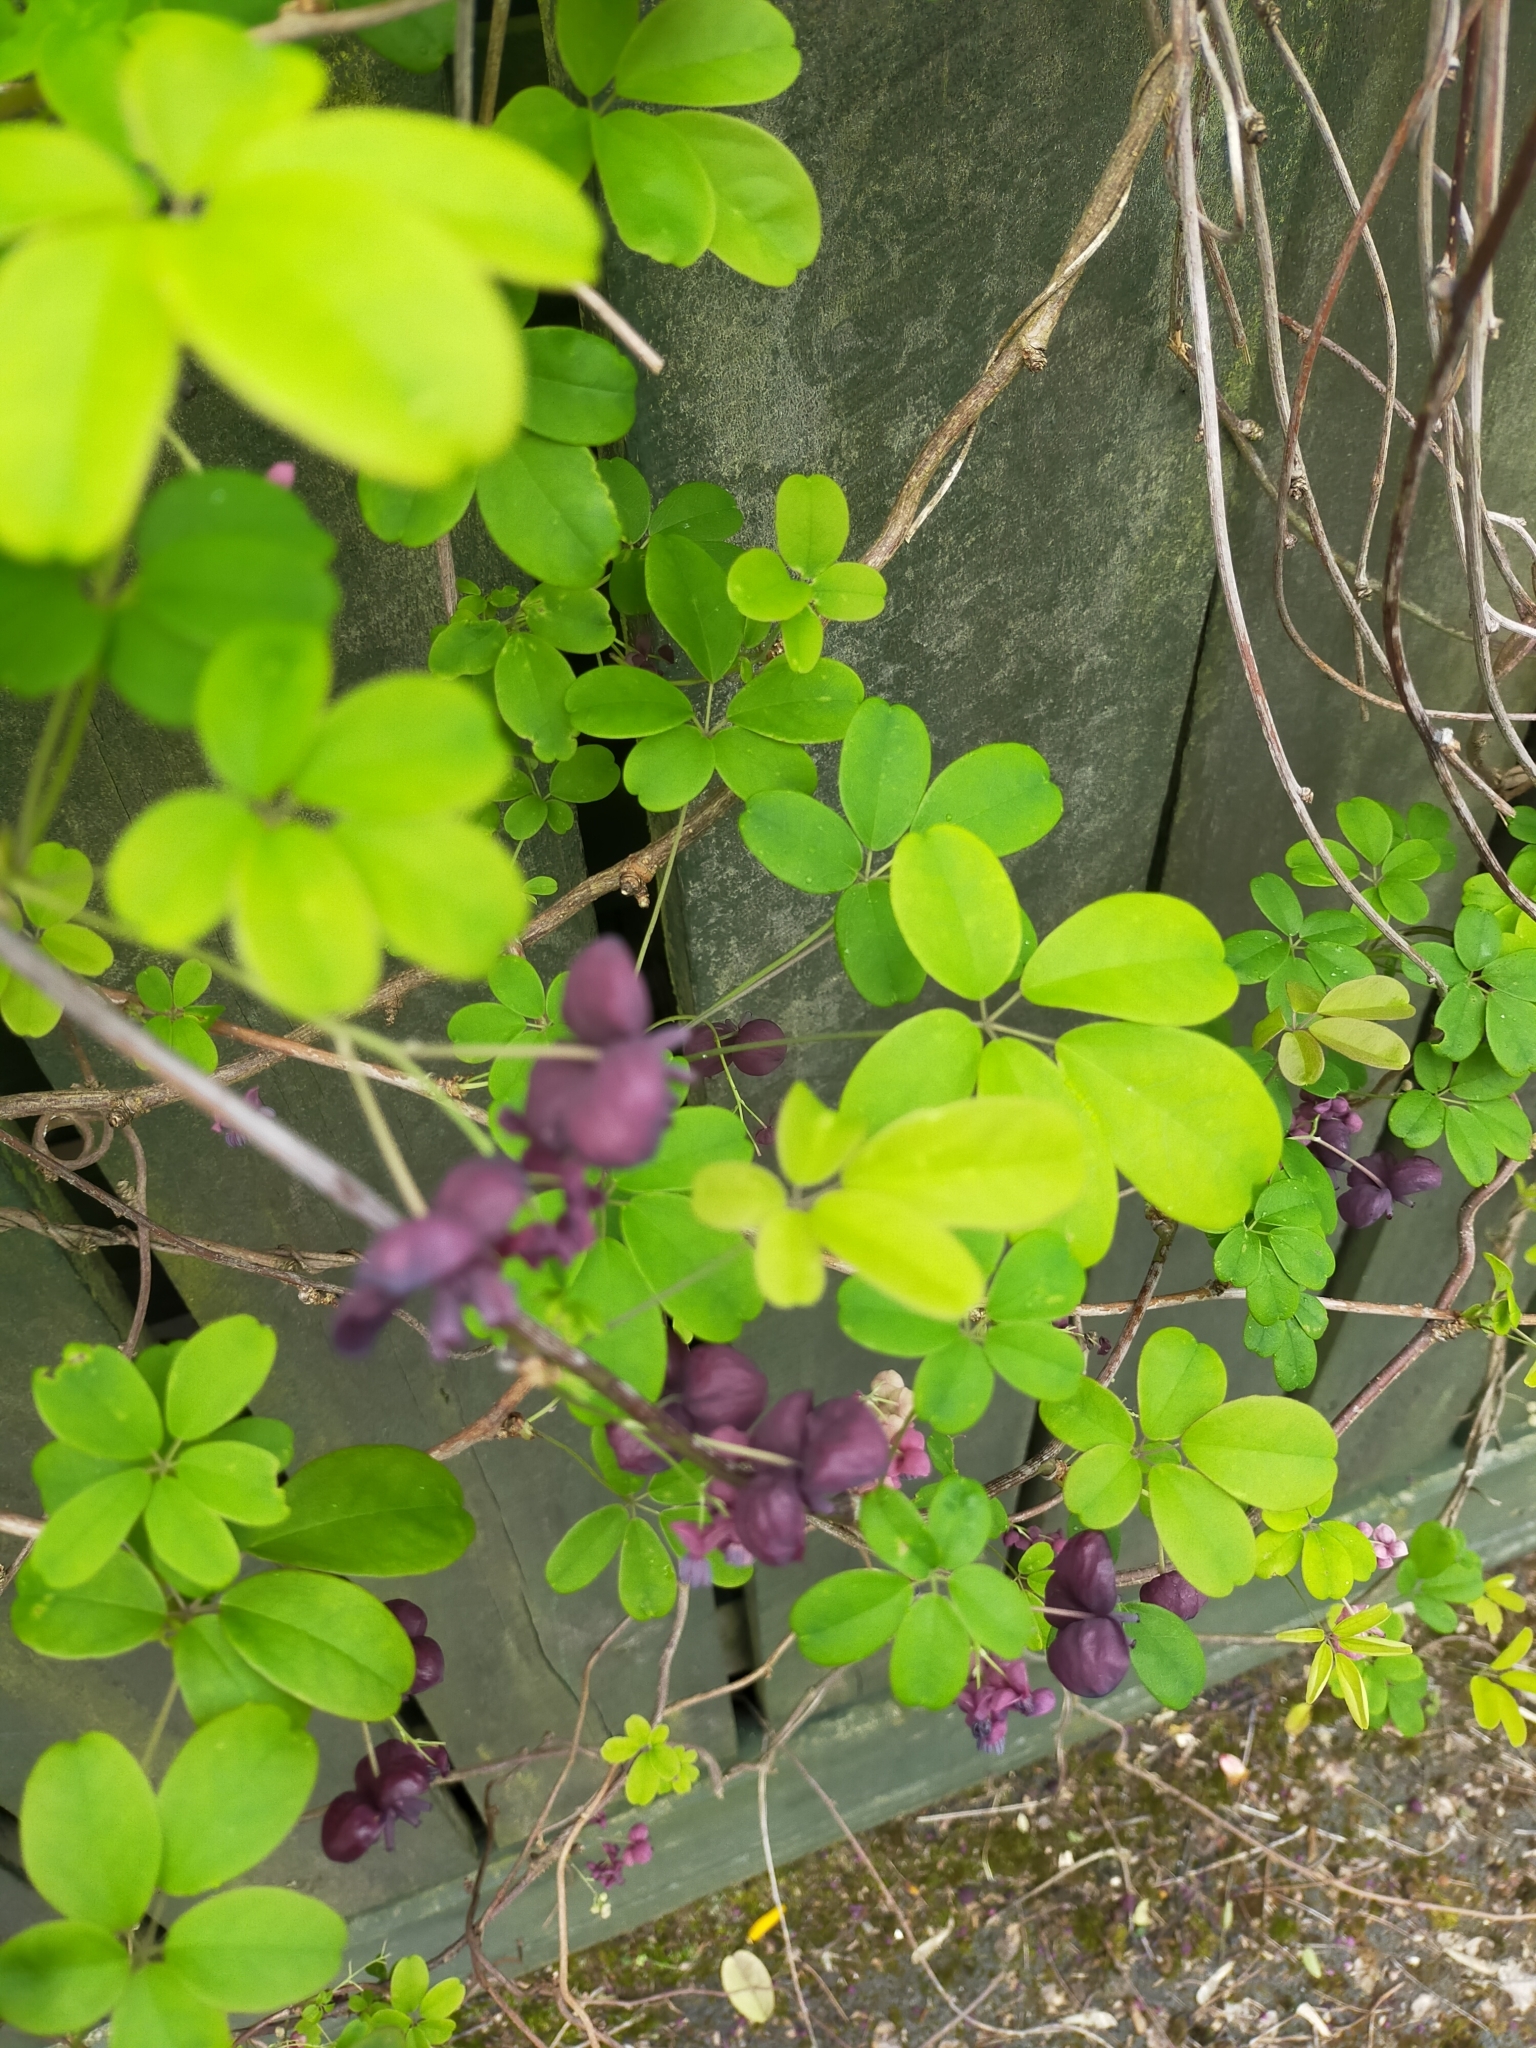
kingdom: Plantae
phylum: Tracheophyta
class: Magnoliopsida
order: Ranunculales
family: Lardizabalaceae
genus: Akebia
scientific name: Akebia quinata
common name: Five-leaf akebia
